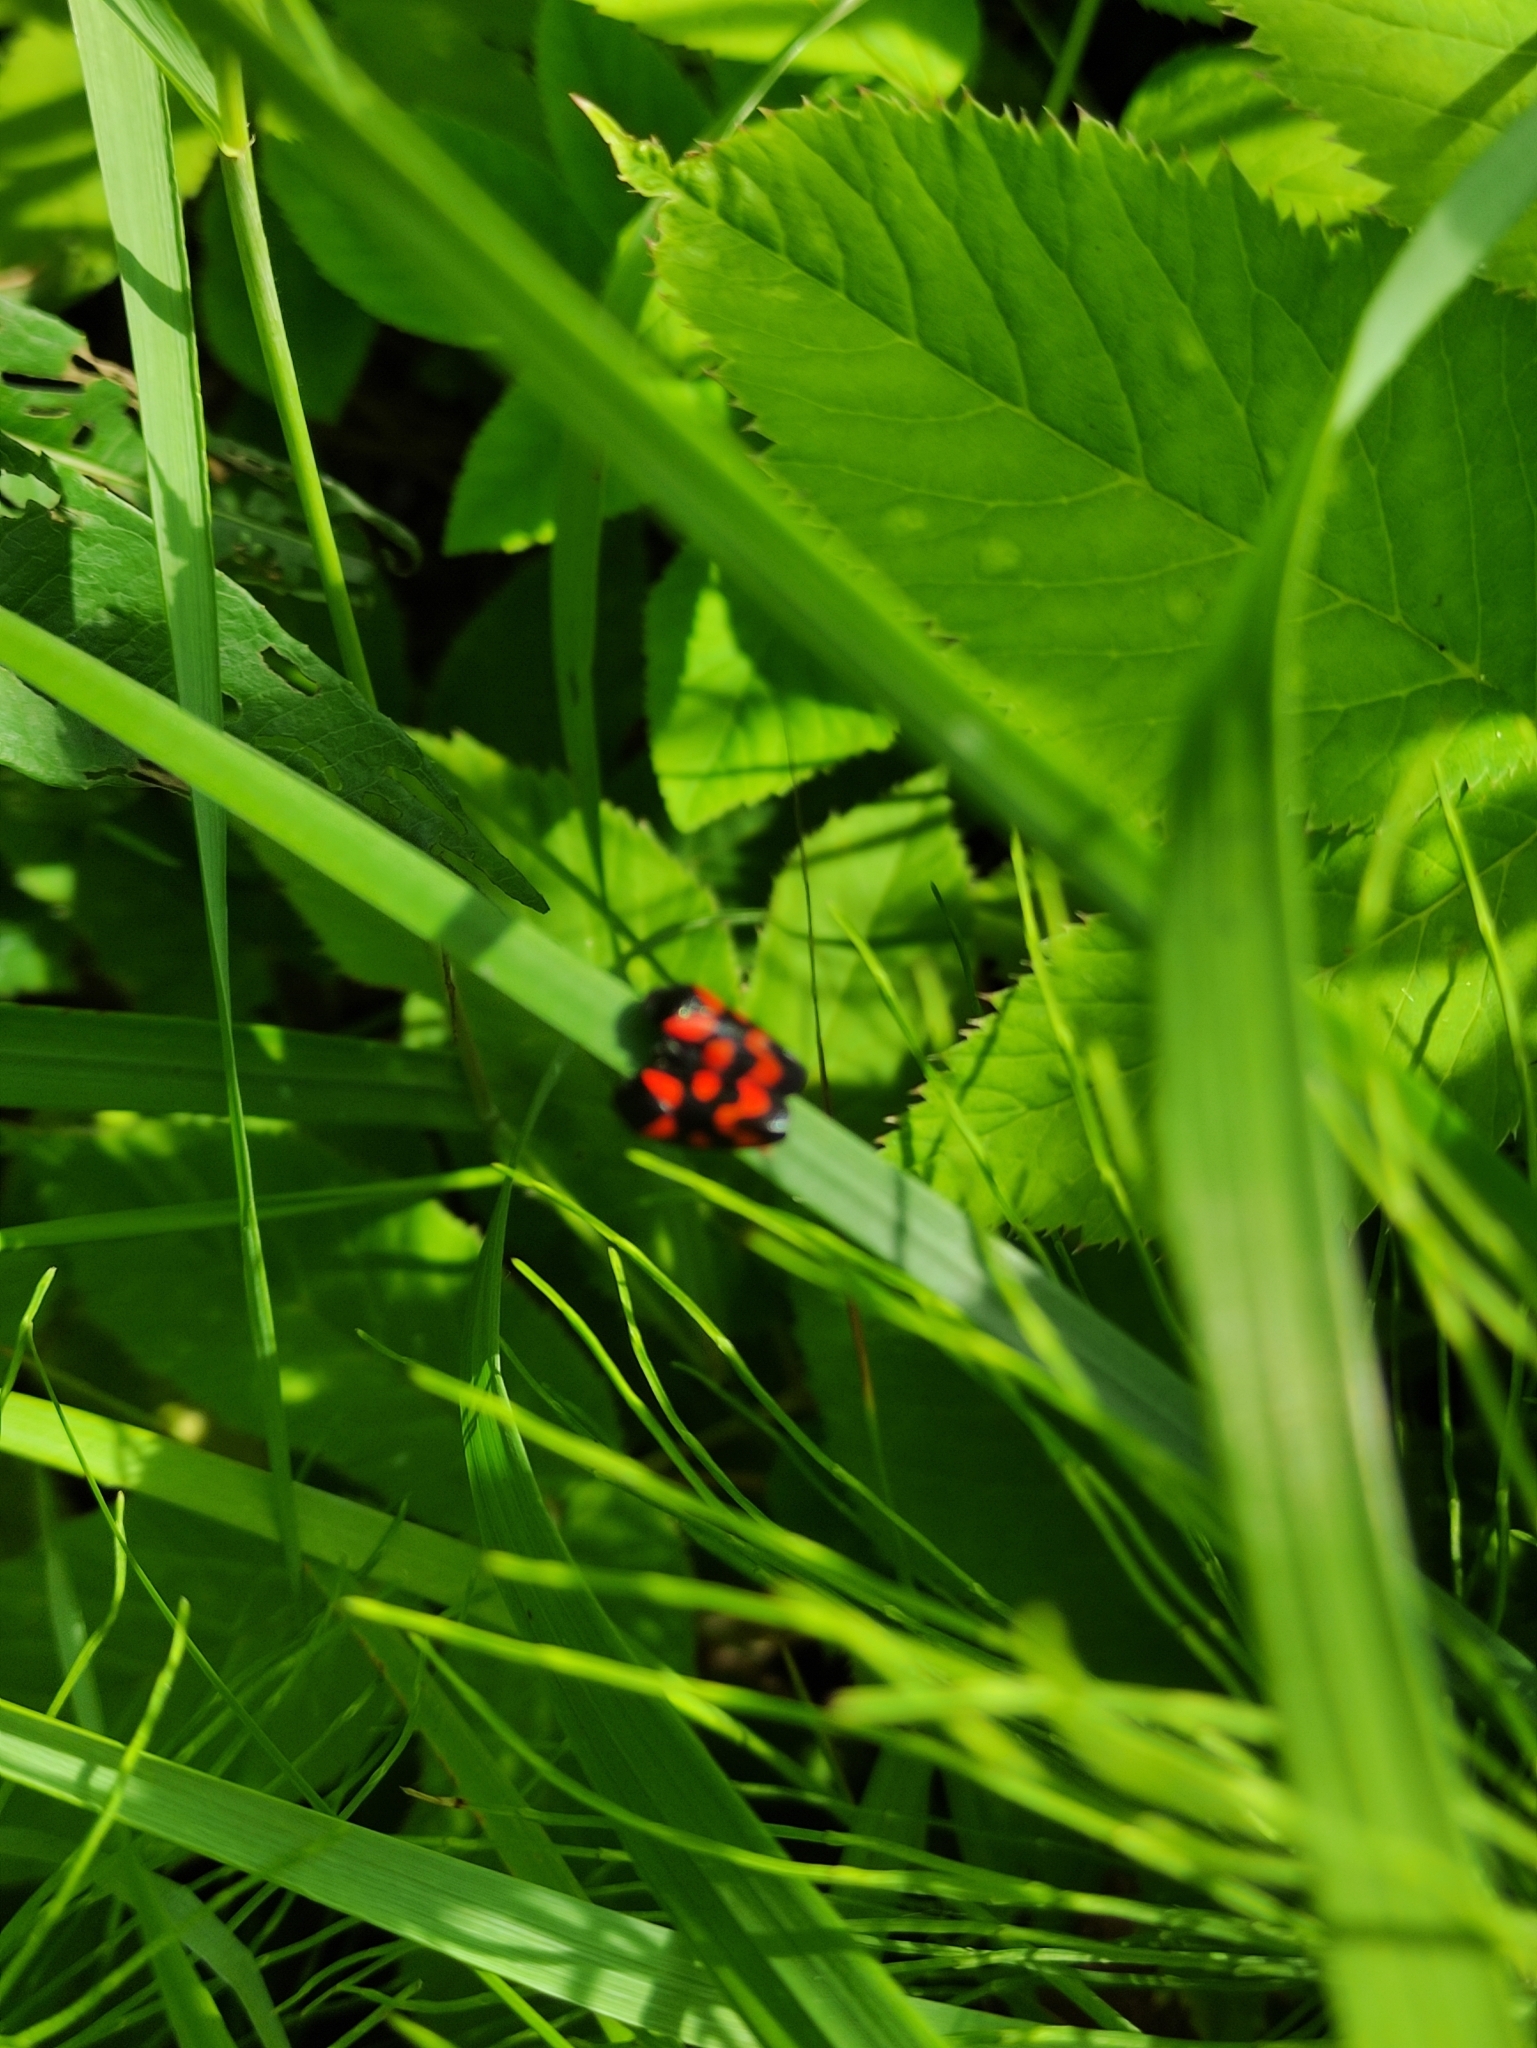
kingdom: Animalia
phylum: Arthropoda
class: Insecta
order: Hemiptera
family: Cercopidae
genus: Cercopis
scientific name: Cercopis vulnerata
